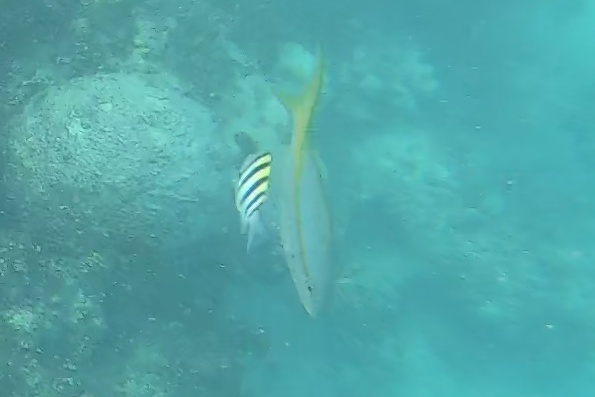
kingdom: Animalia
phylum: Chordata
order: Perciformes
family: Lutjanidae
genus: Ocyurus
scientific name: Ocyurus chrysurus
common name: Yellowtail snapper
